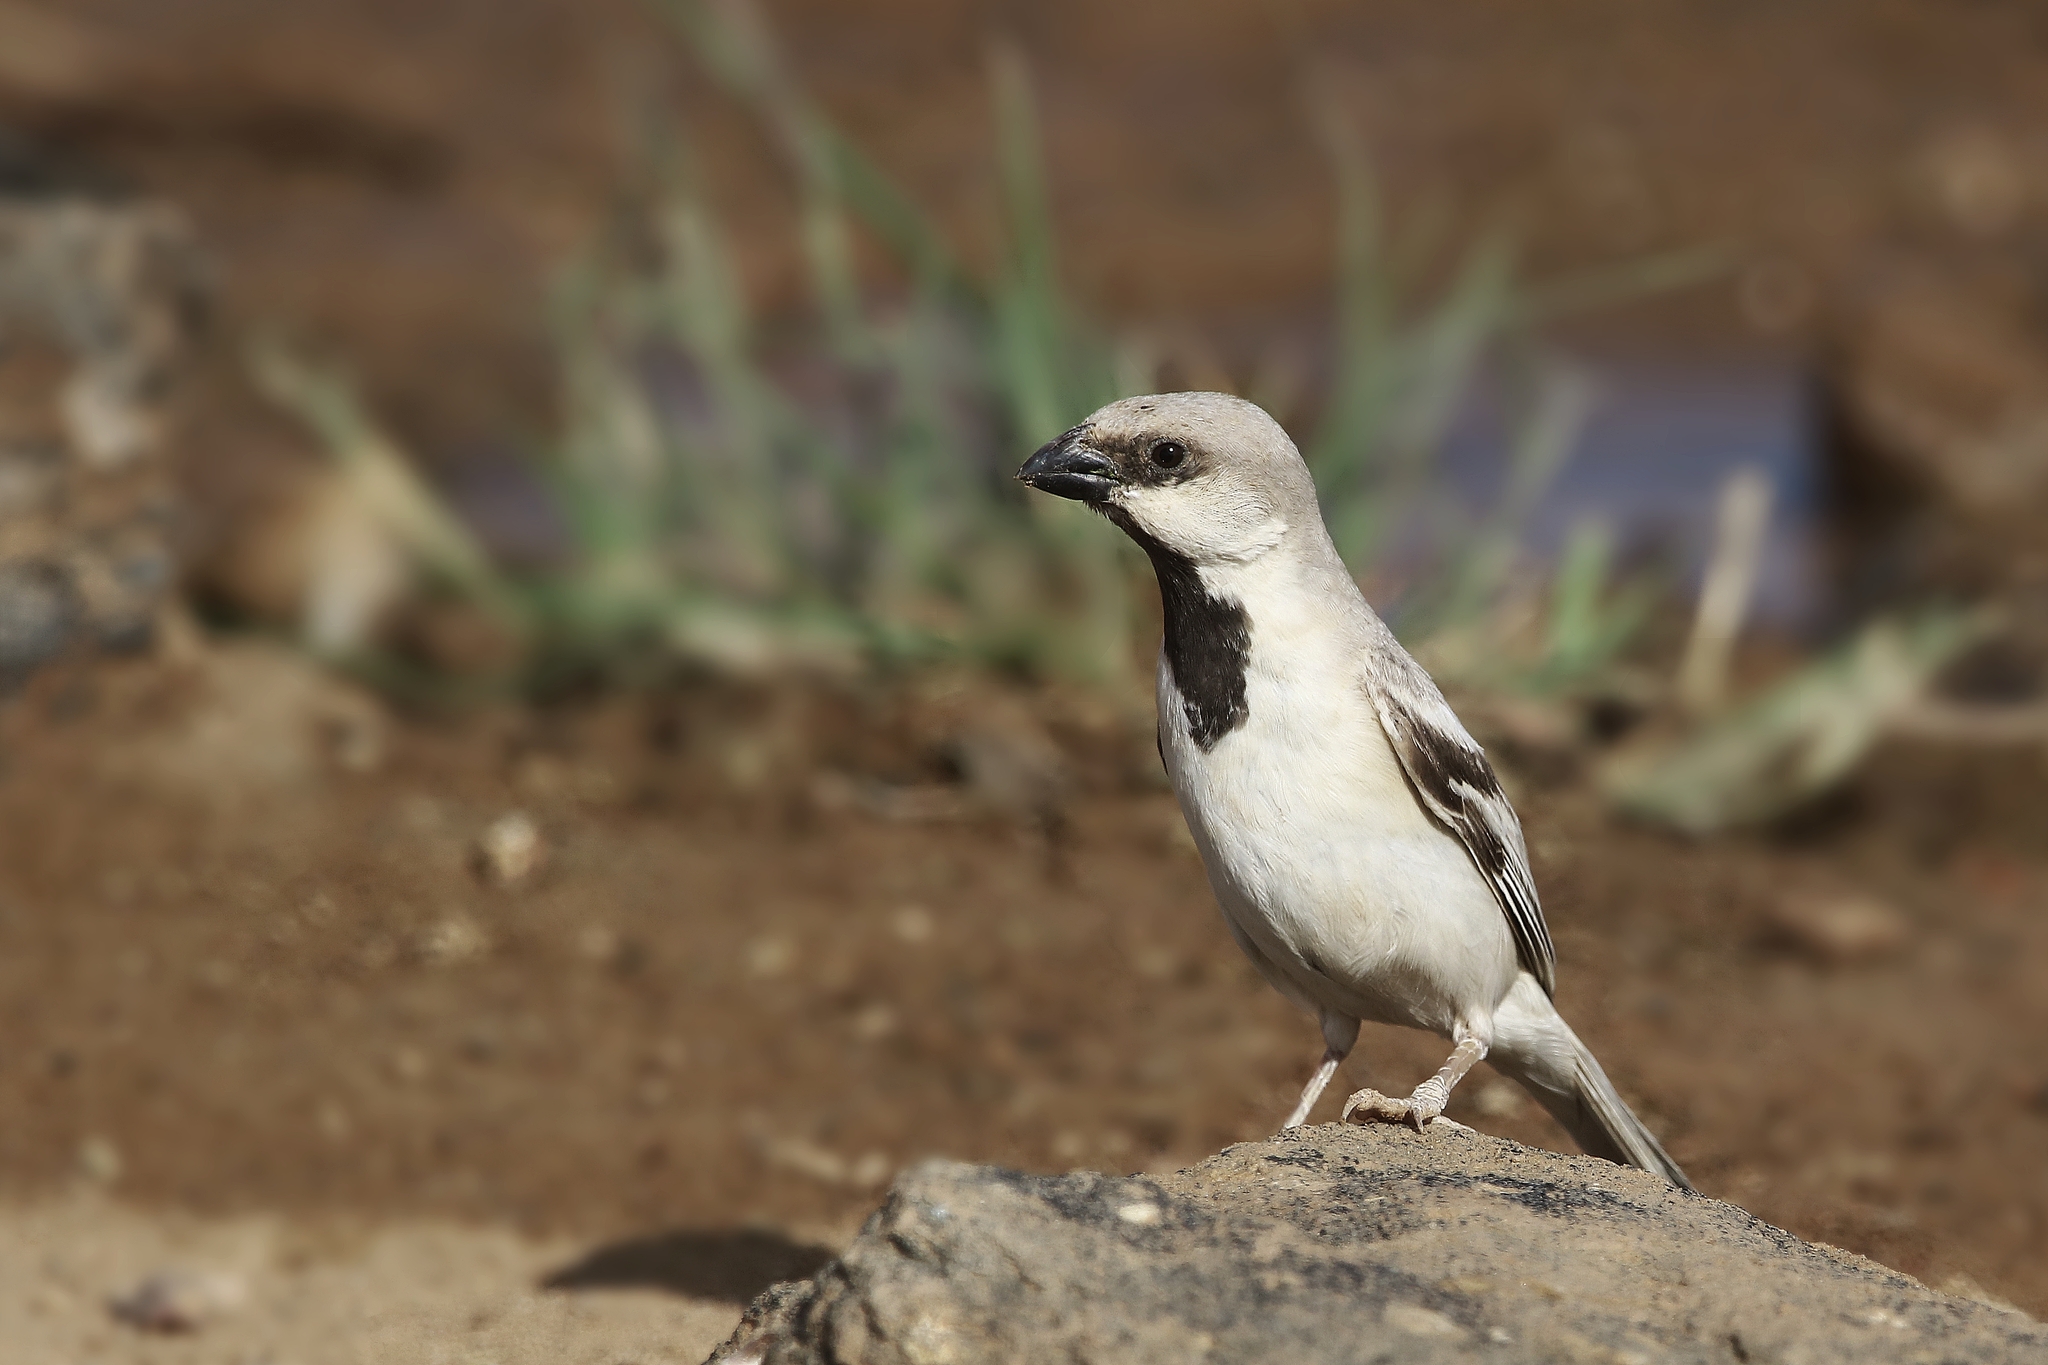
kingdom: Animalia
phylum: Chordata
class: Aves
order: Passeriformes
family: Passeridae
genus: Passer
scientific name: Passer simplex
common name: Desert sparrow
